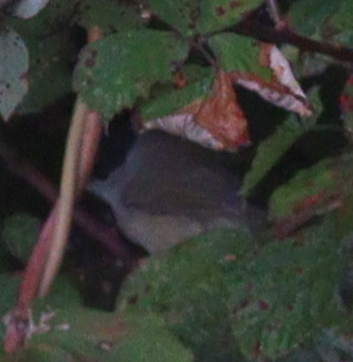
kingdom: Animalia
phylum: Chordata
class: Aves
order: Passeriformes
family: Sylviidae
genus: Sylvia
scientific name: Sylvia atricapilla
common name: Eurasian blackcap
